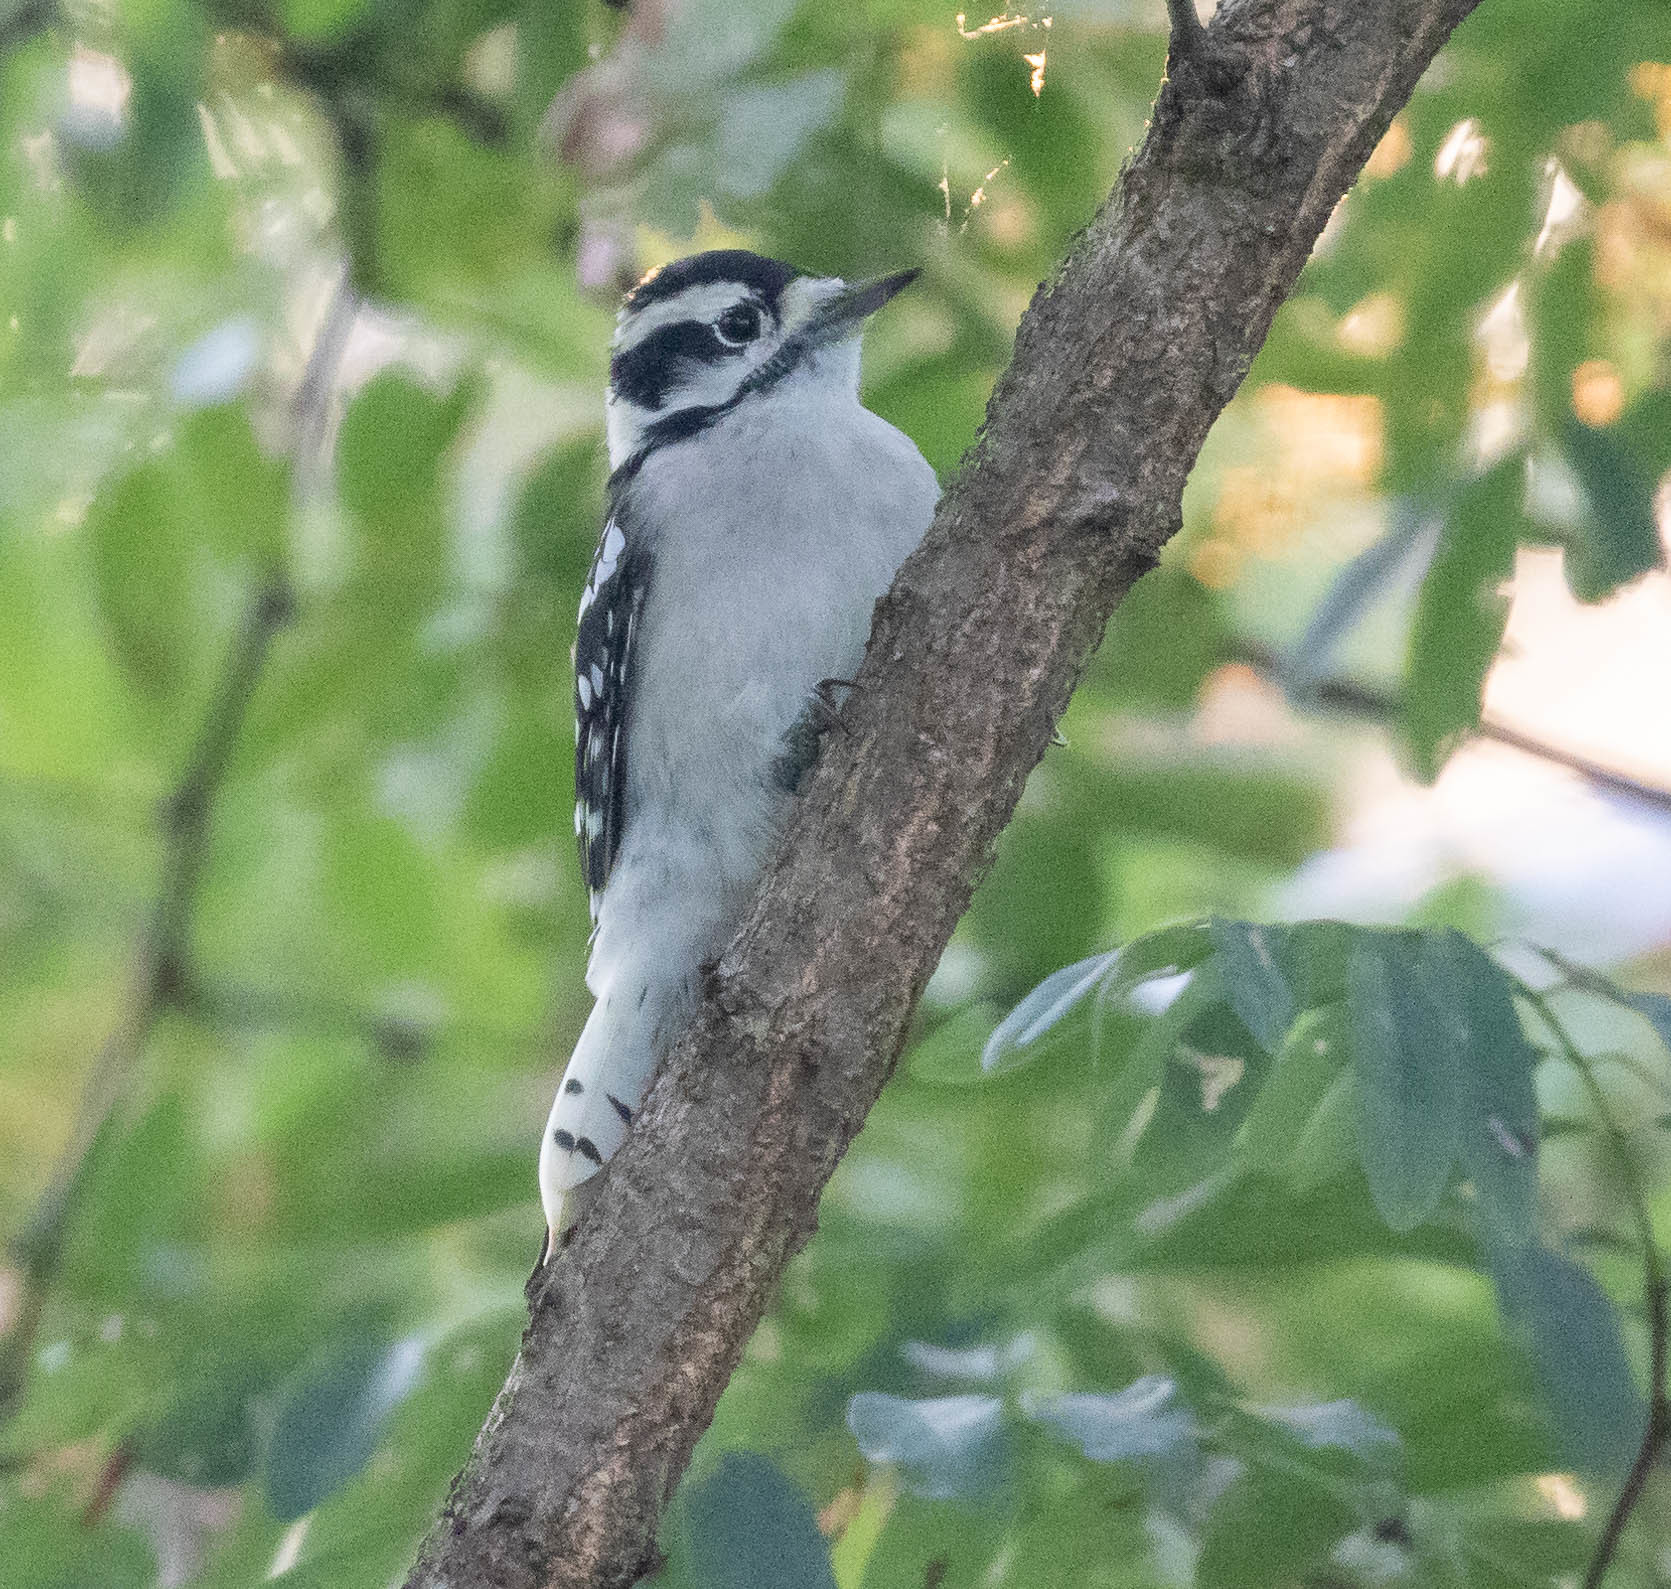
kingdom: Animalia
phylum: Chordata
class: Aves
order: Piciformes
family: Picidae
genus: Dryobates
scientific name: Dryobates pubescens
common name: Downy woodpecker
